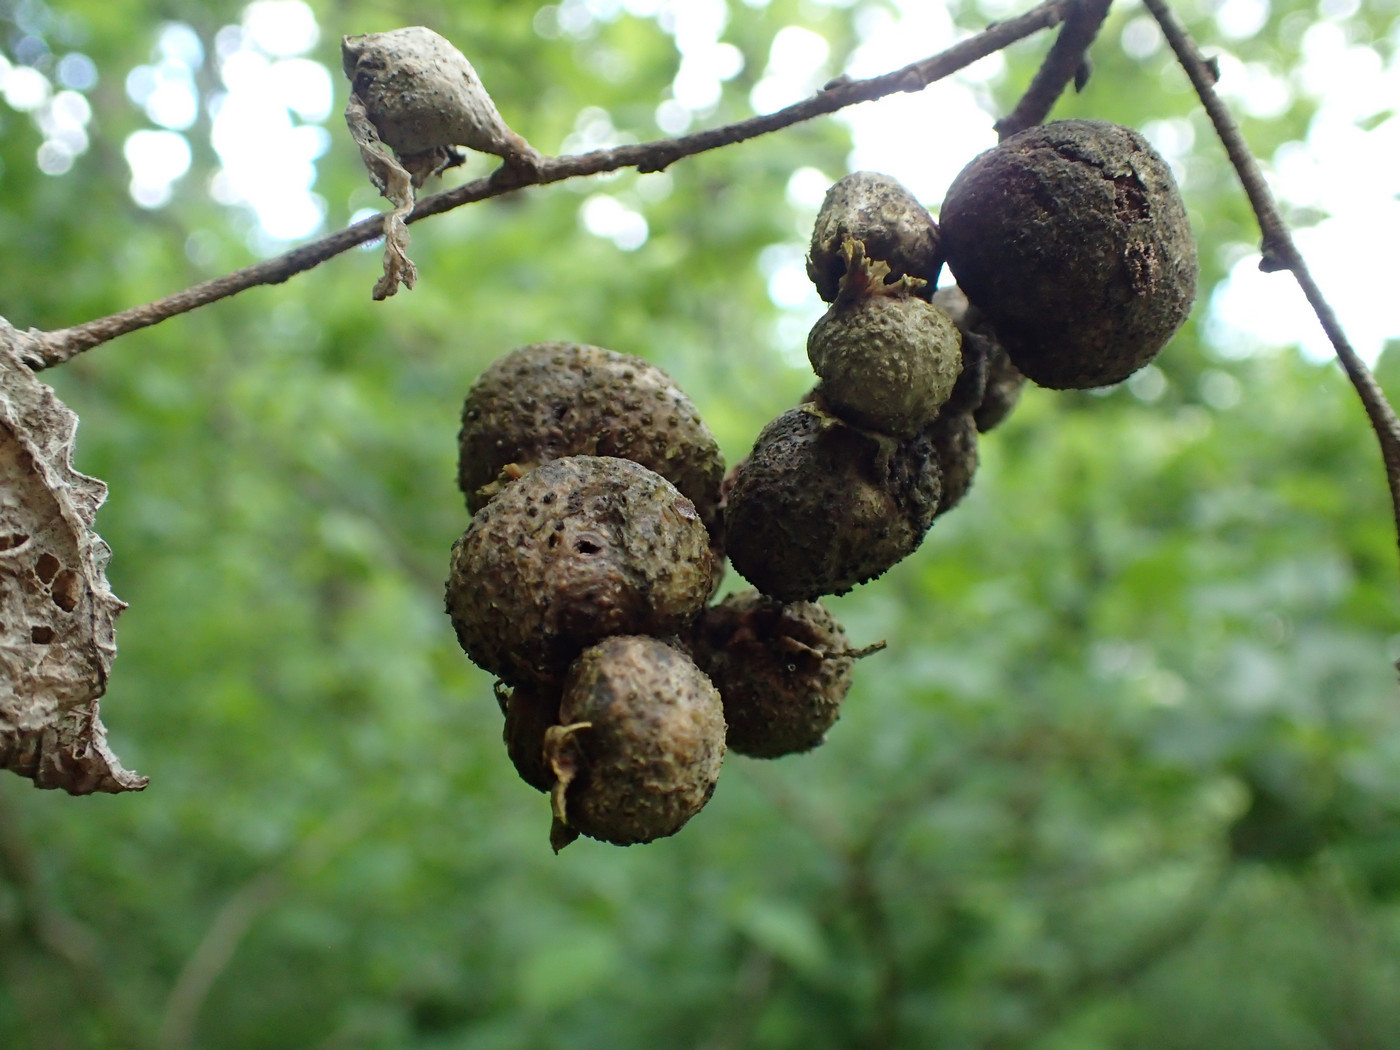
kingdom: Animalia
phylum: Arthropoda
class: Insecta
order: Hemiptera
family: Aphalaridae
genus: Pachypsylla
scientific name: Pachypsylla venusta
